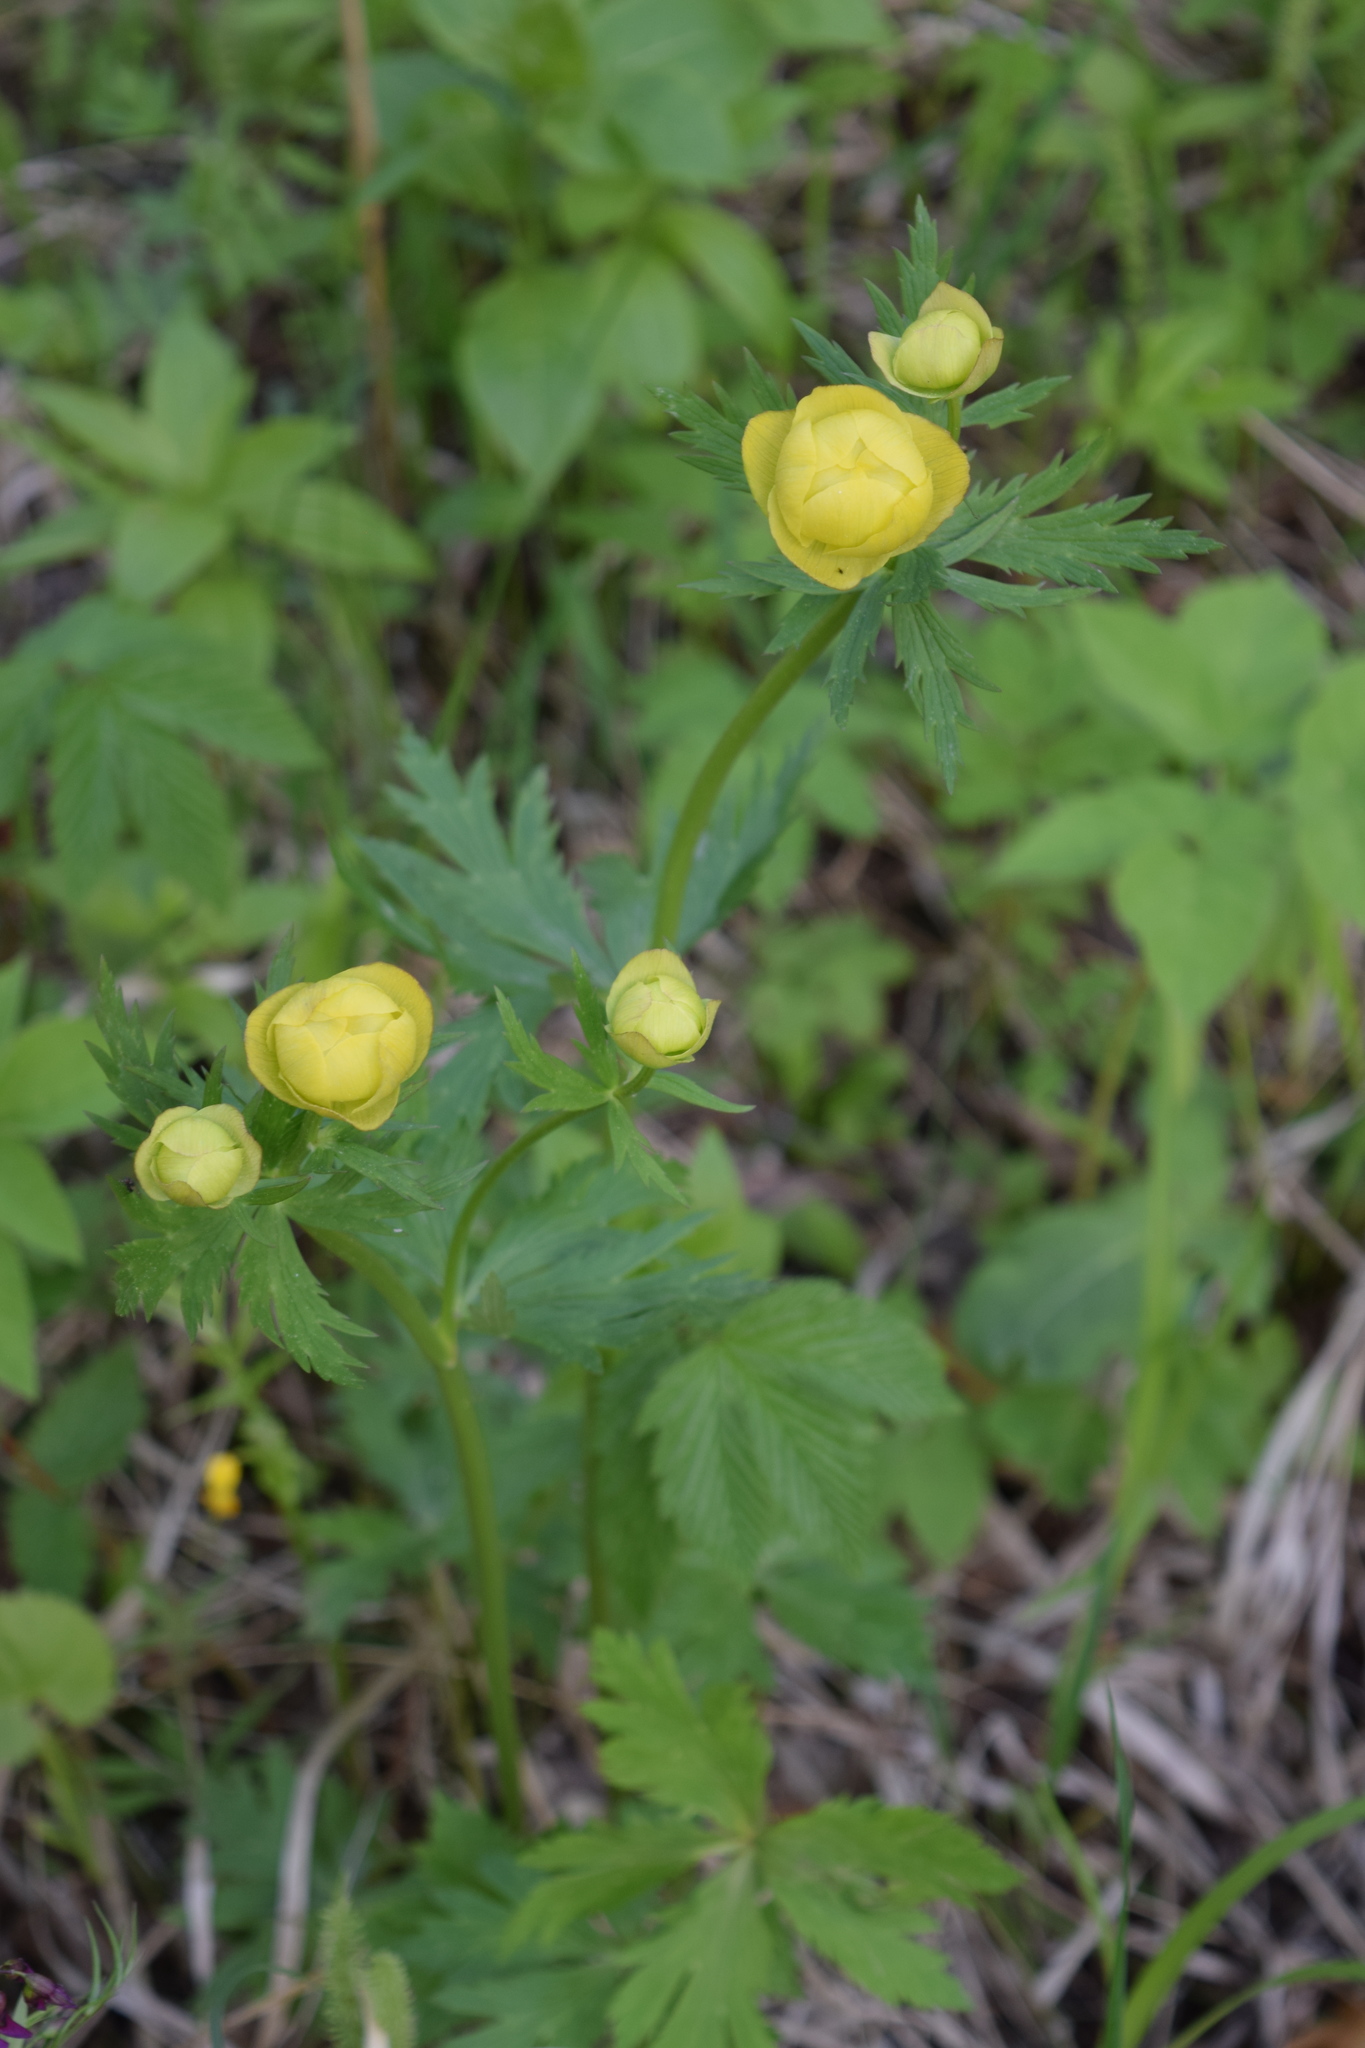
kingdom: Plantae
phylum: Tracheophyta
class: Magnoliopsida
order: Ranunculales
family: Ranunculaceae
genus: Trollius
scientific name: Trollius europaeus
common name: European globeflower
